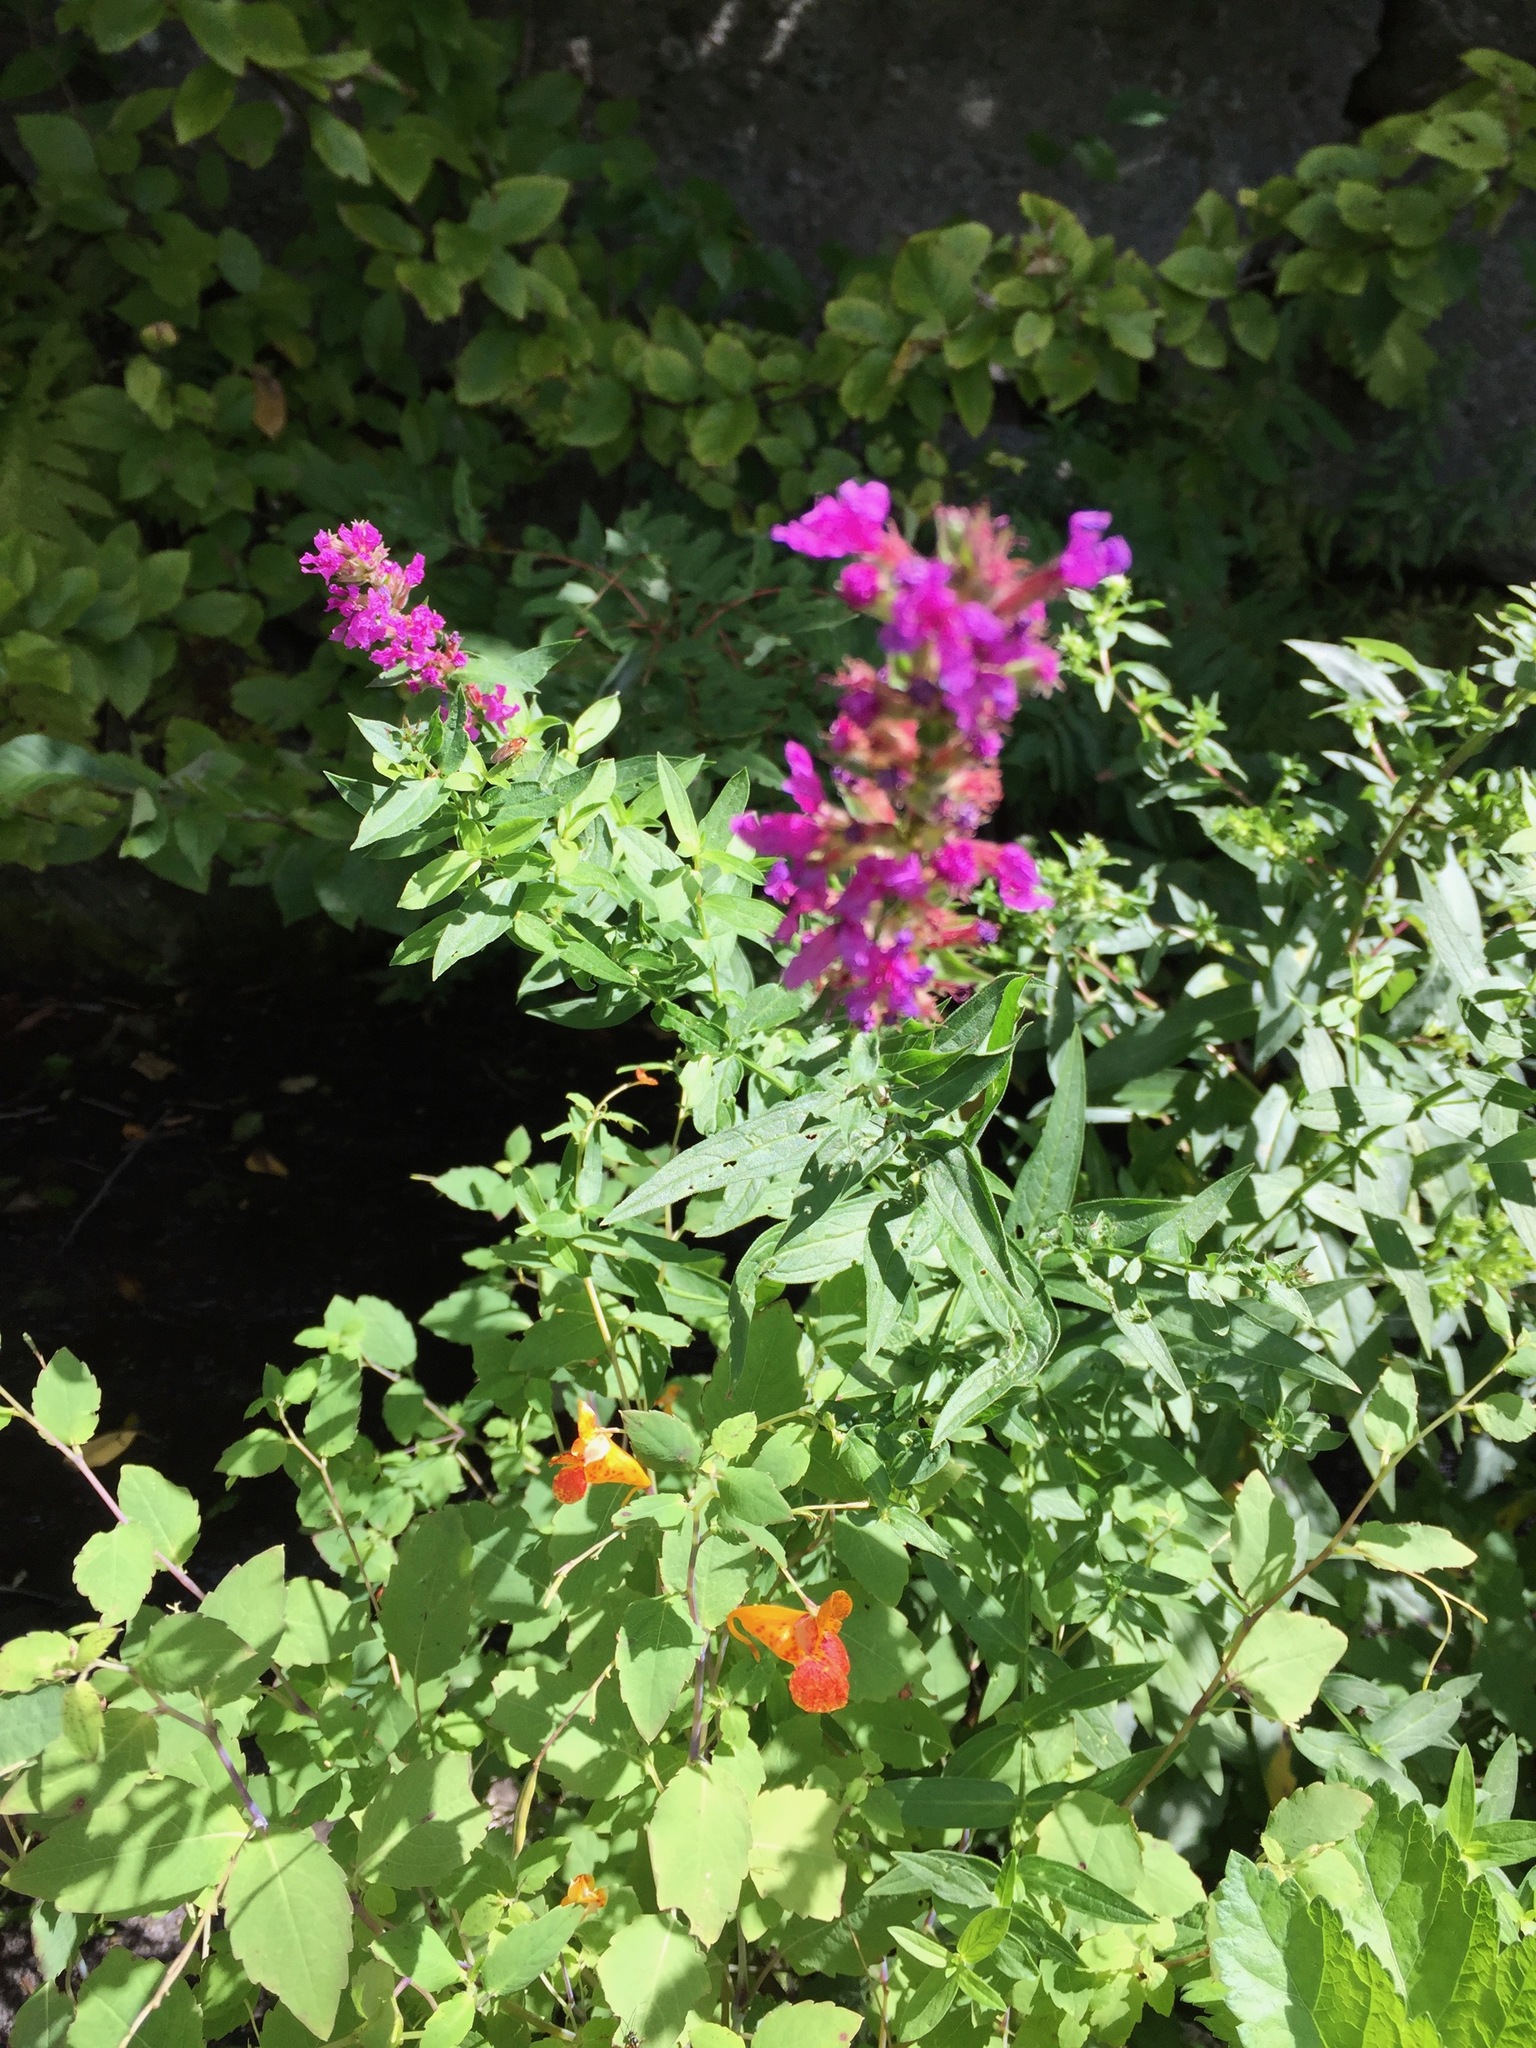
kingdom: Plantae
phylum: Tracheophyta
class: Magnoliopsida
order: Myrtales
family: Lythraceae
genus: Lythrum
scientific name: Lythrum salicaria
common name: Purple loosestrife
